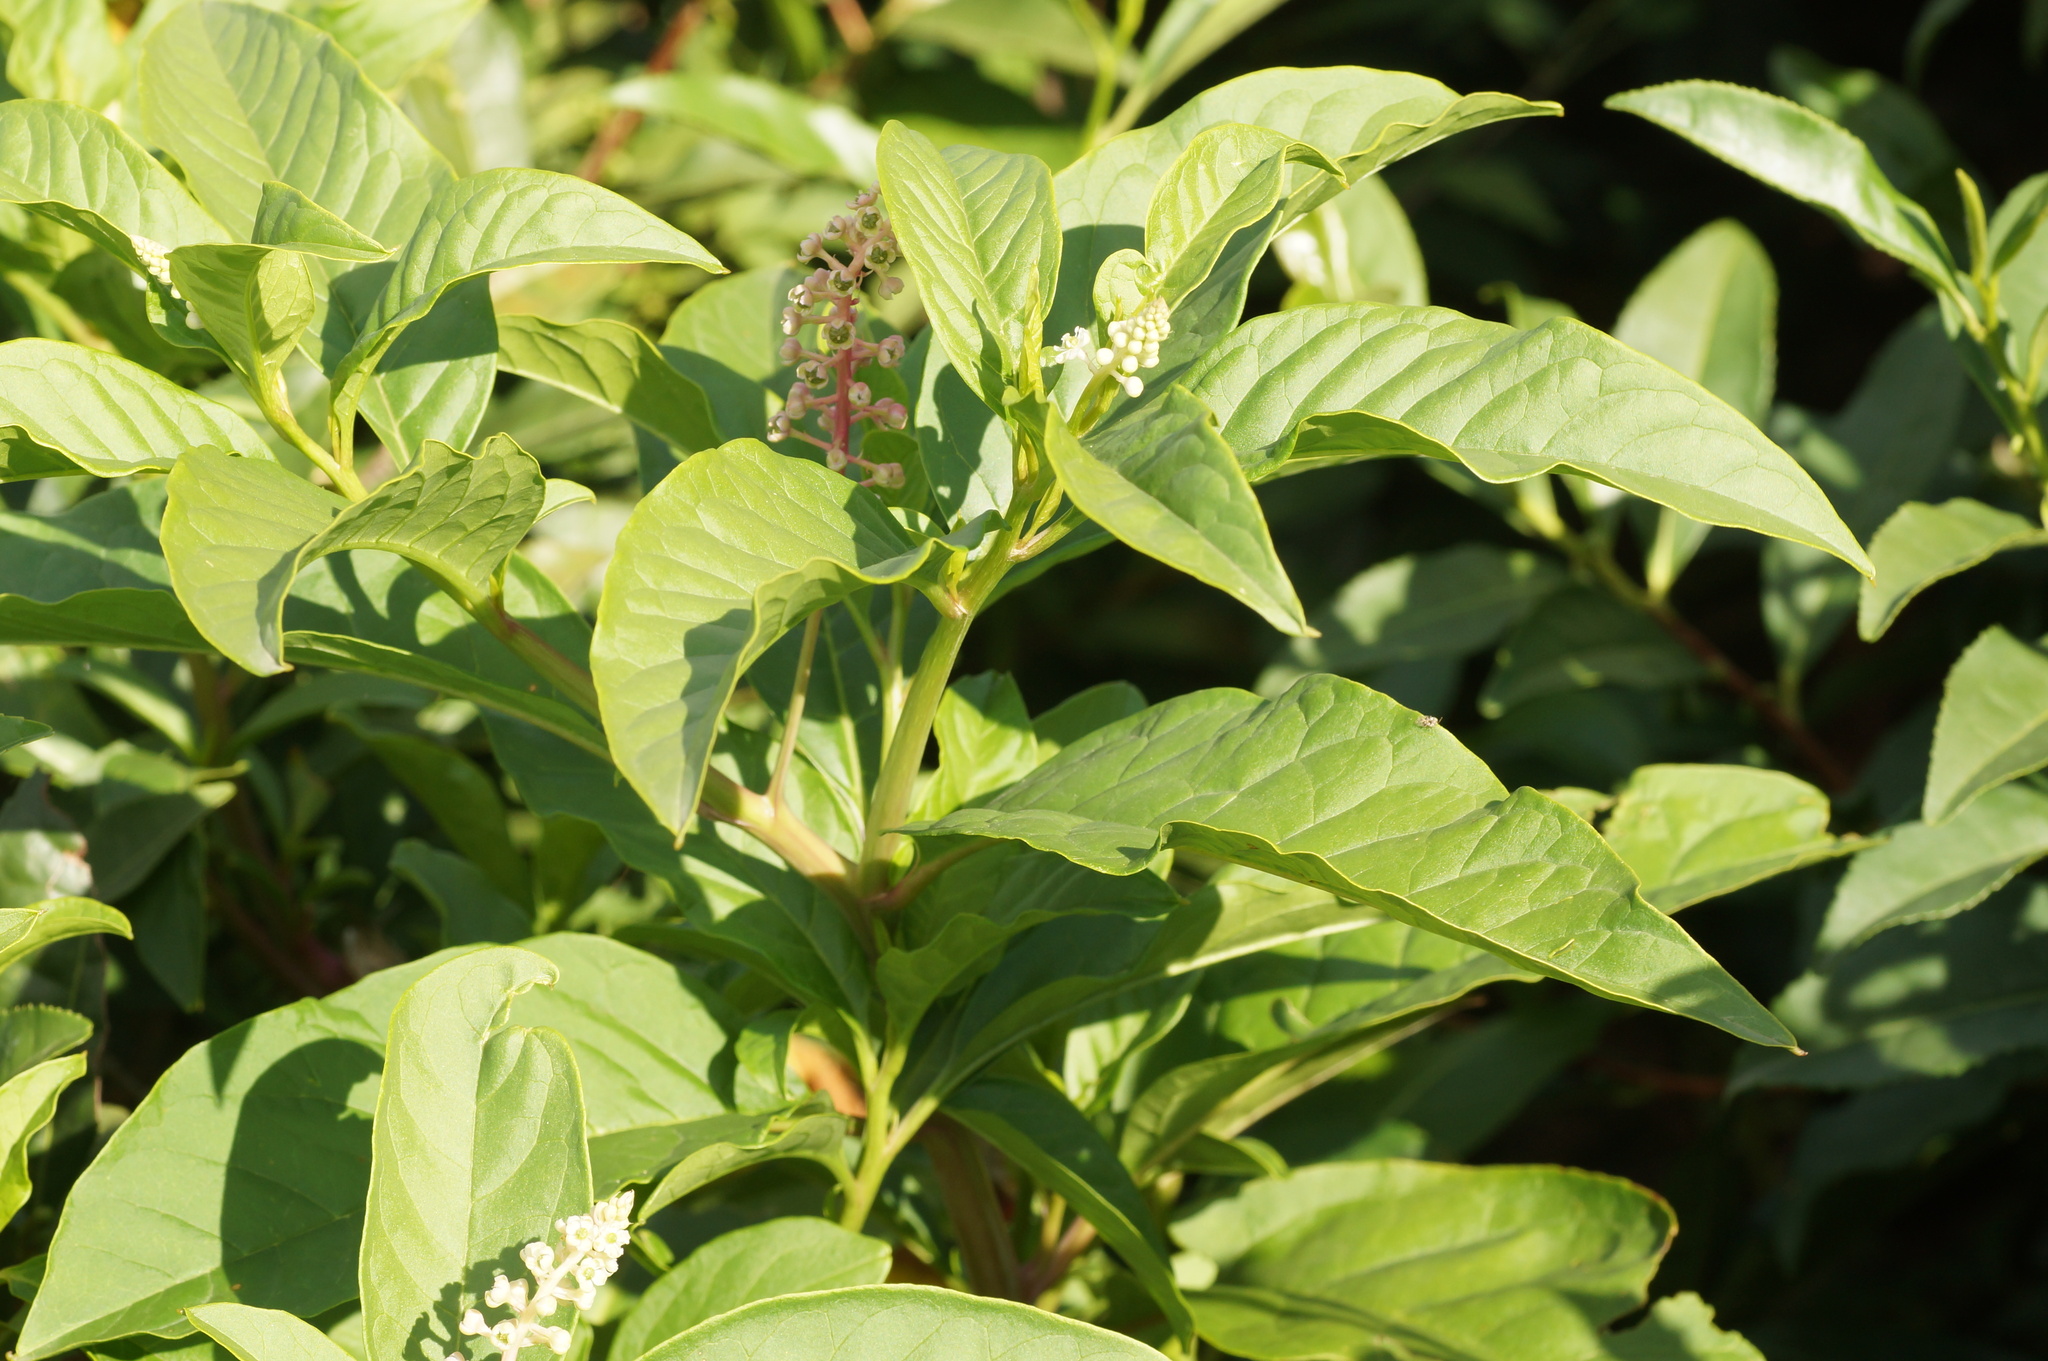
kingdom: Plantae
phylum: Tracheophyta
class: Magnoliopsida
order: Caryophyllales
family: Phytolaccaceae
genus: Phytolacca
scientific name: Phytolacca americana
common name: American pokeweed
